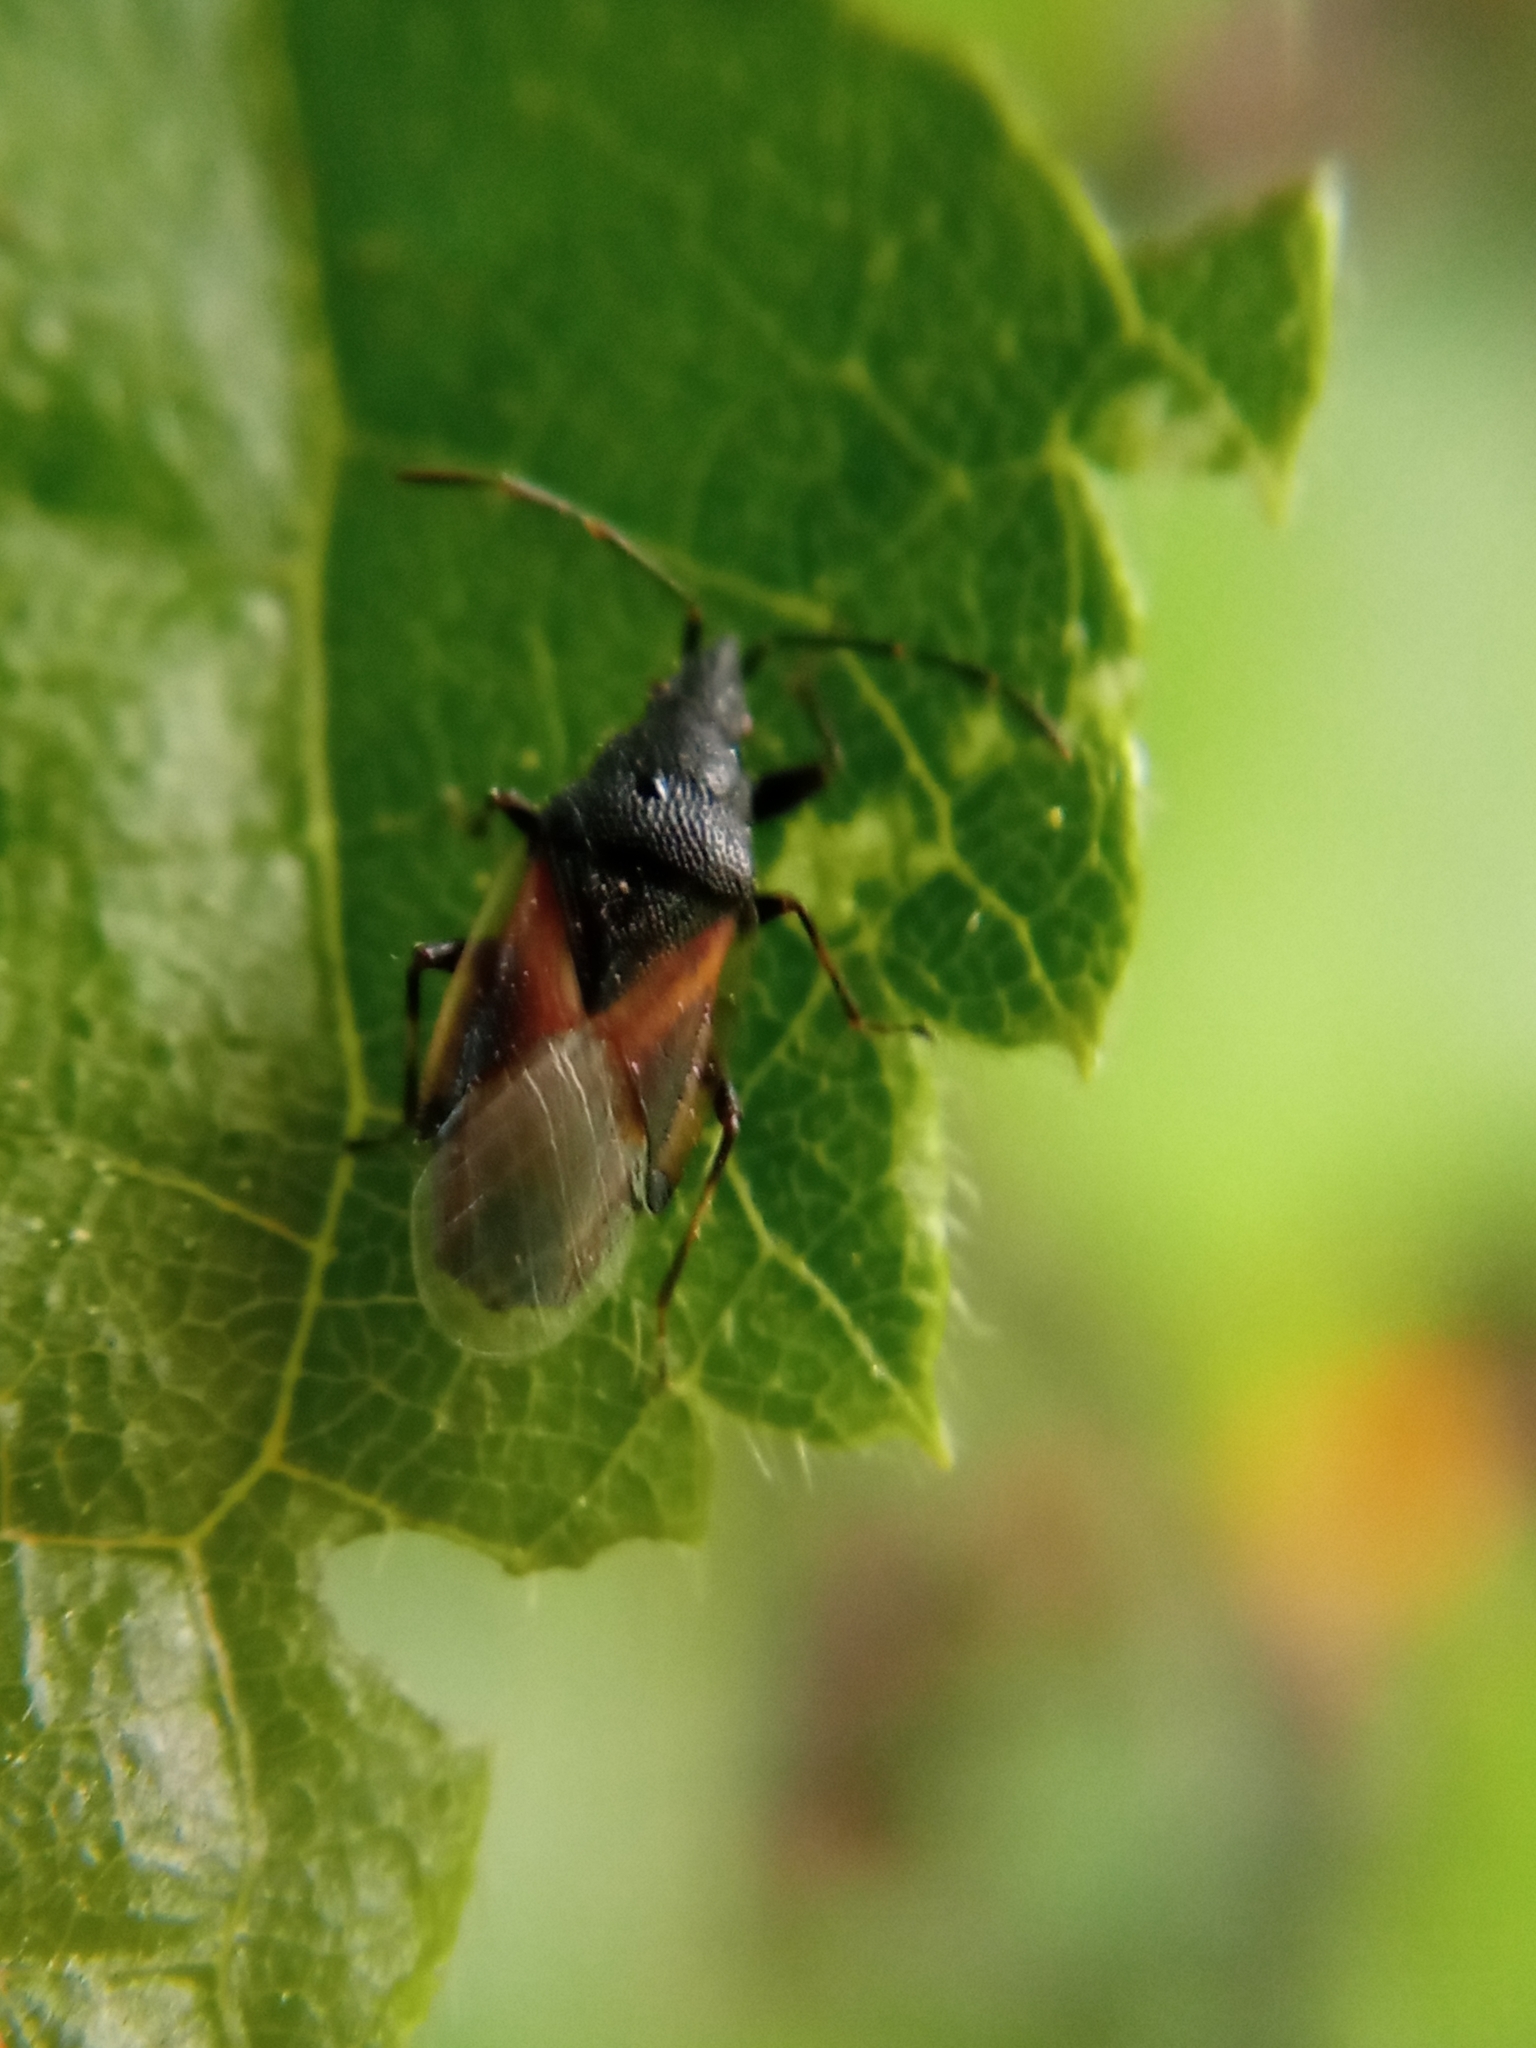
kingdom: Animalia
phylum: Arthropoda
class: Insecta
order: Hemiptera
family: Oxycarenidae
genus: Oxycarenus
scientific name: Oxycarenus lavaterae
